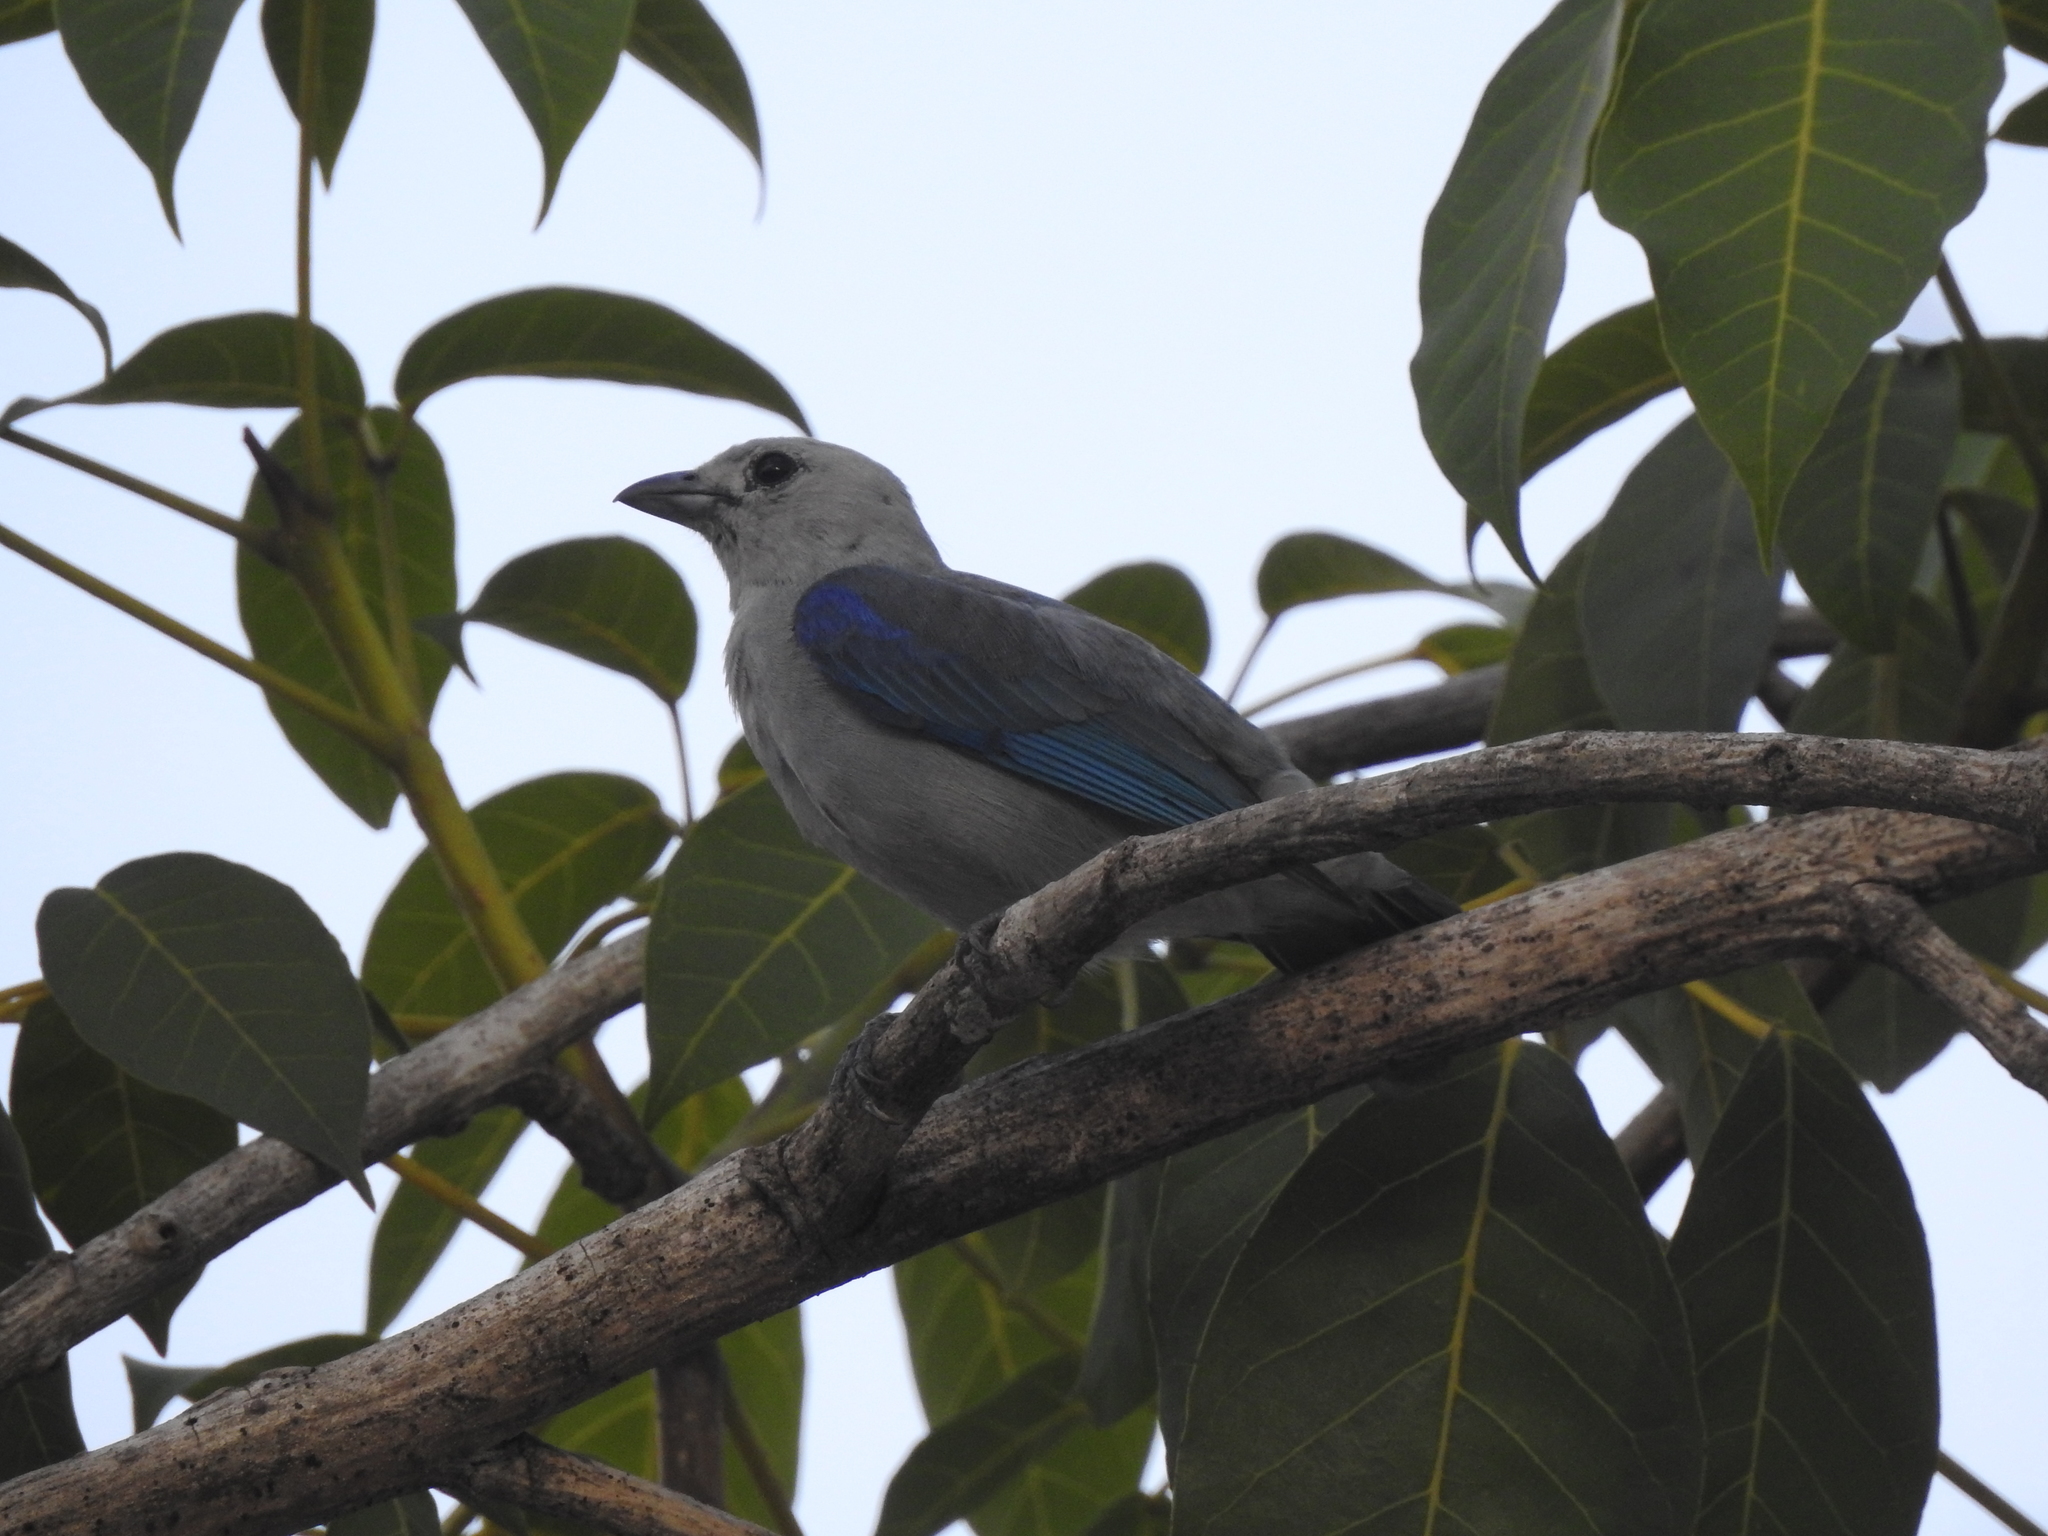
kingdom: Animalia
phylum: Chordata
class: Aves
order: Passeriformes
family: Thraupidae
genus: Thraupis
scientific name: Thraupis episcopus
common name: Blue-grey tanager
